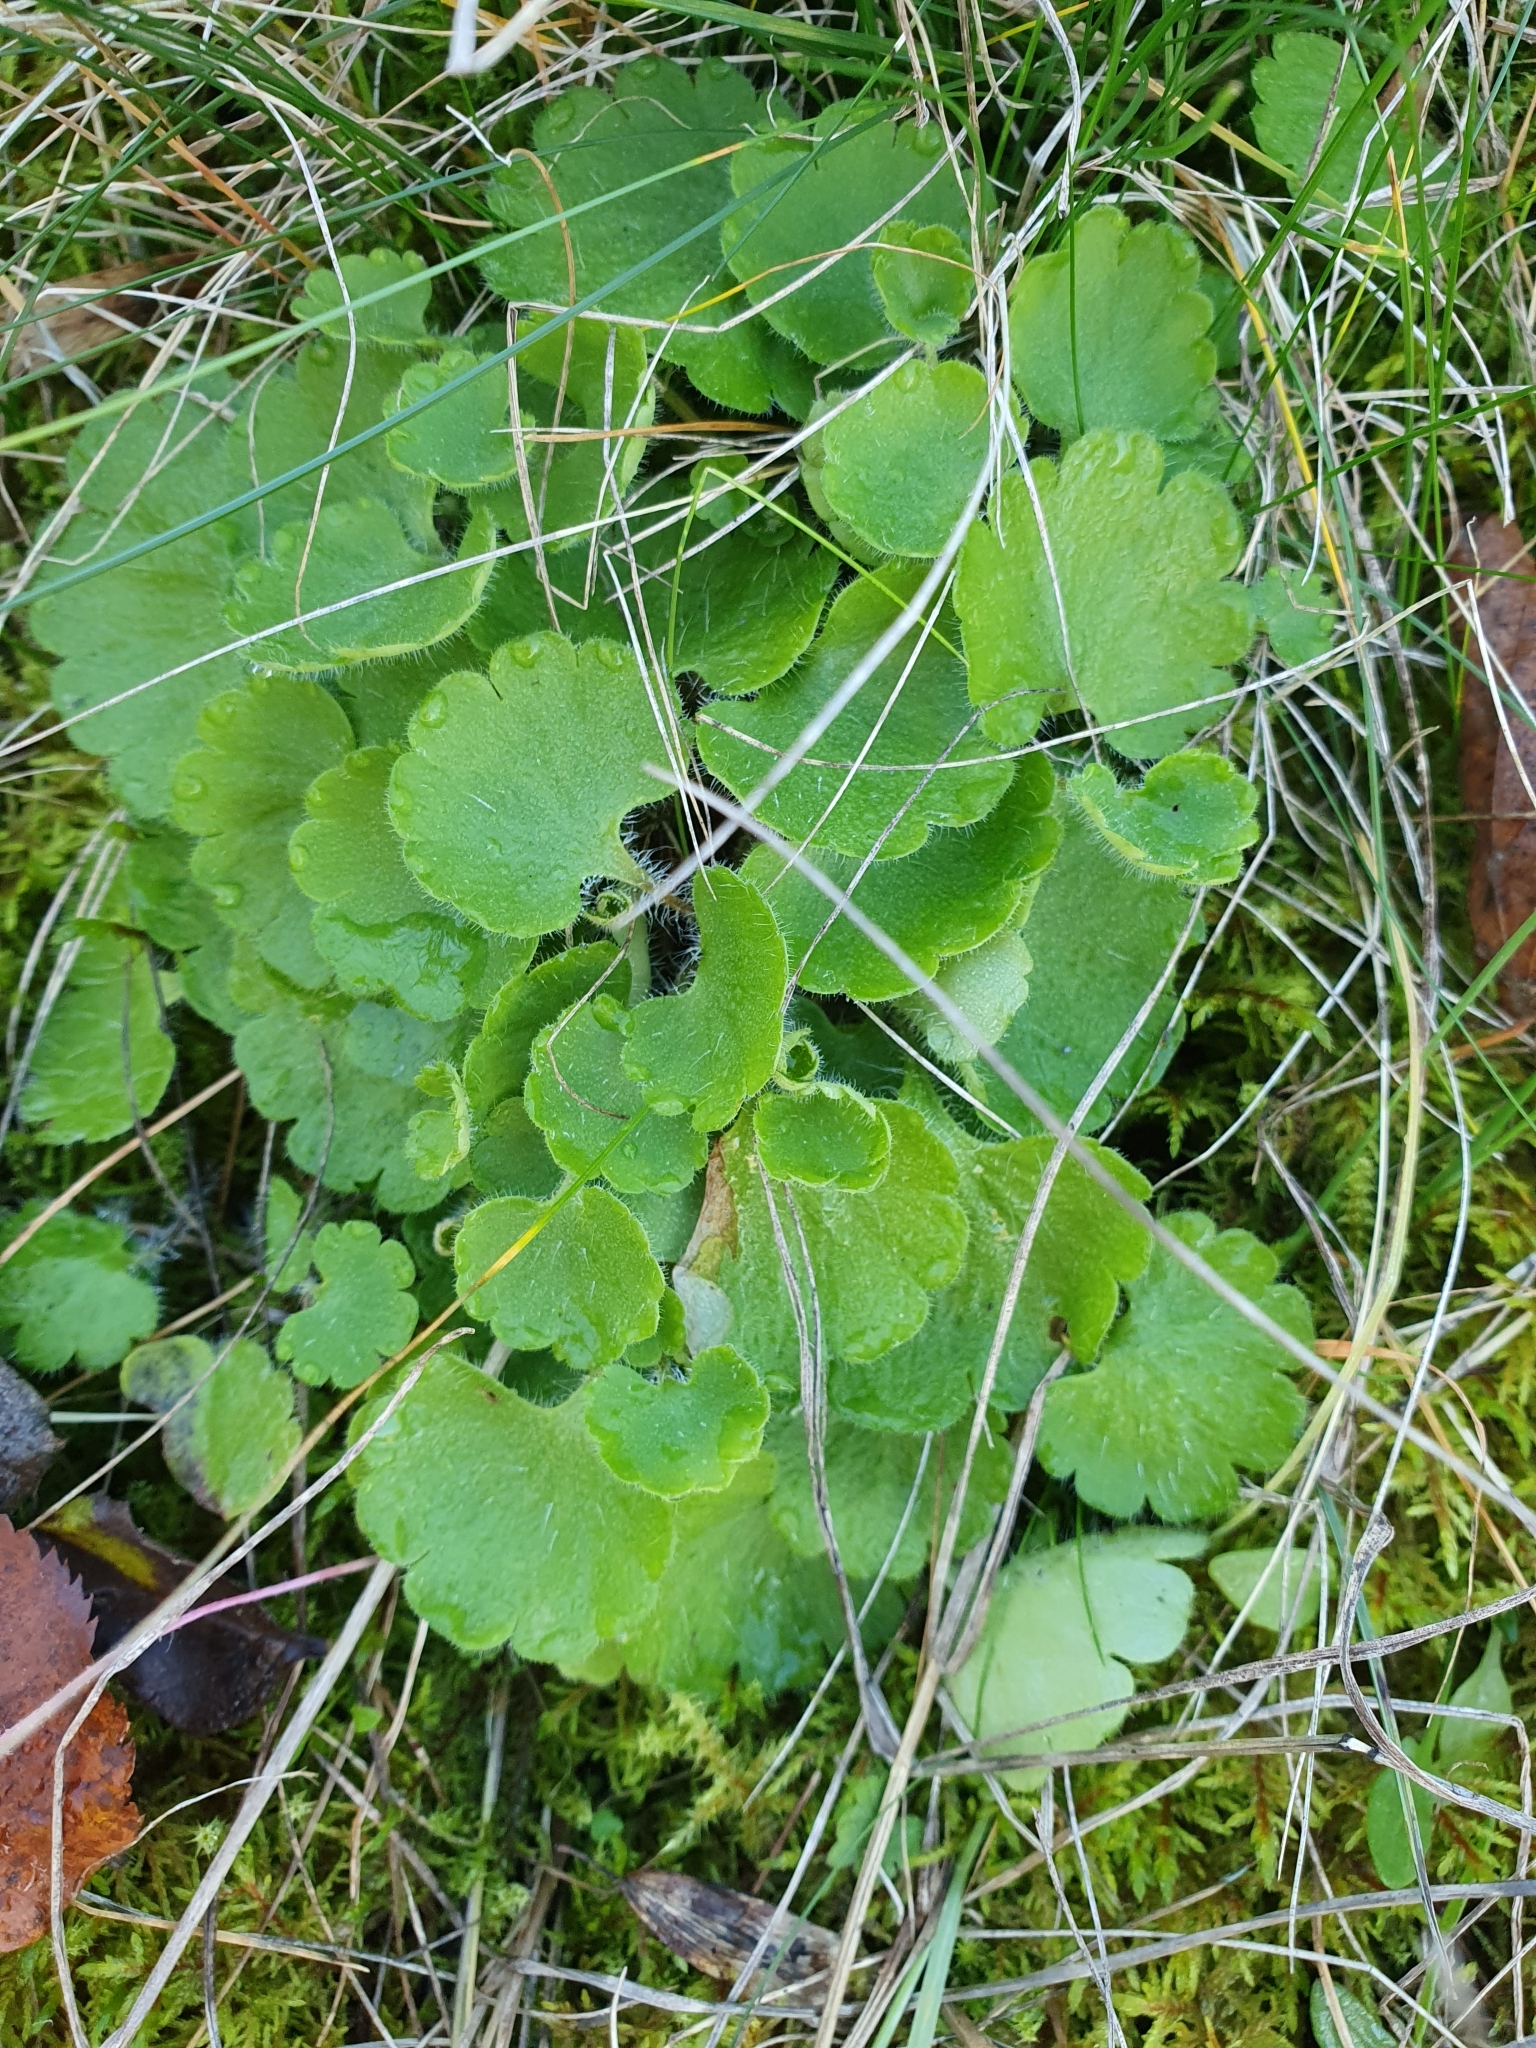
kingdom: Plantae
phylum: Tracheophyta
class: Magnoliopsida
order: Saxifragales
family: Saxifragaceae
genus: Saxifraga
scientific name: Saxifraga granulata
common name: Meadow saxifrage
